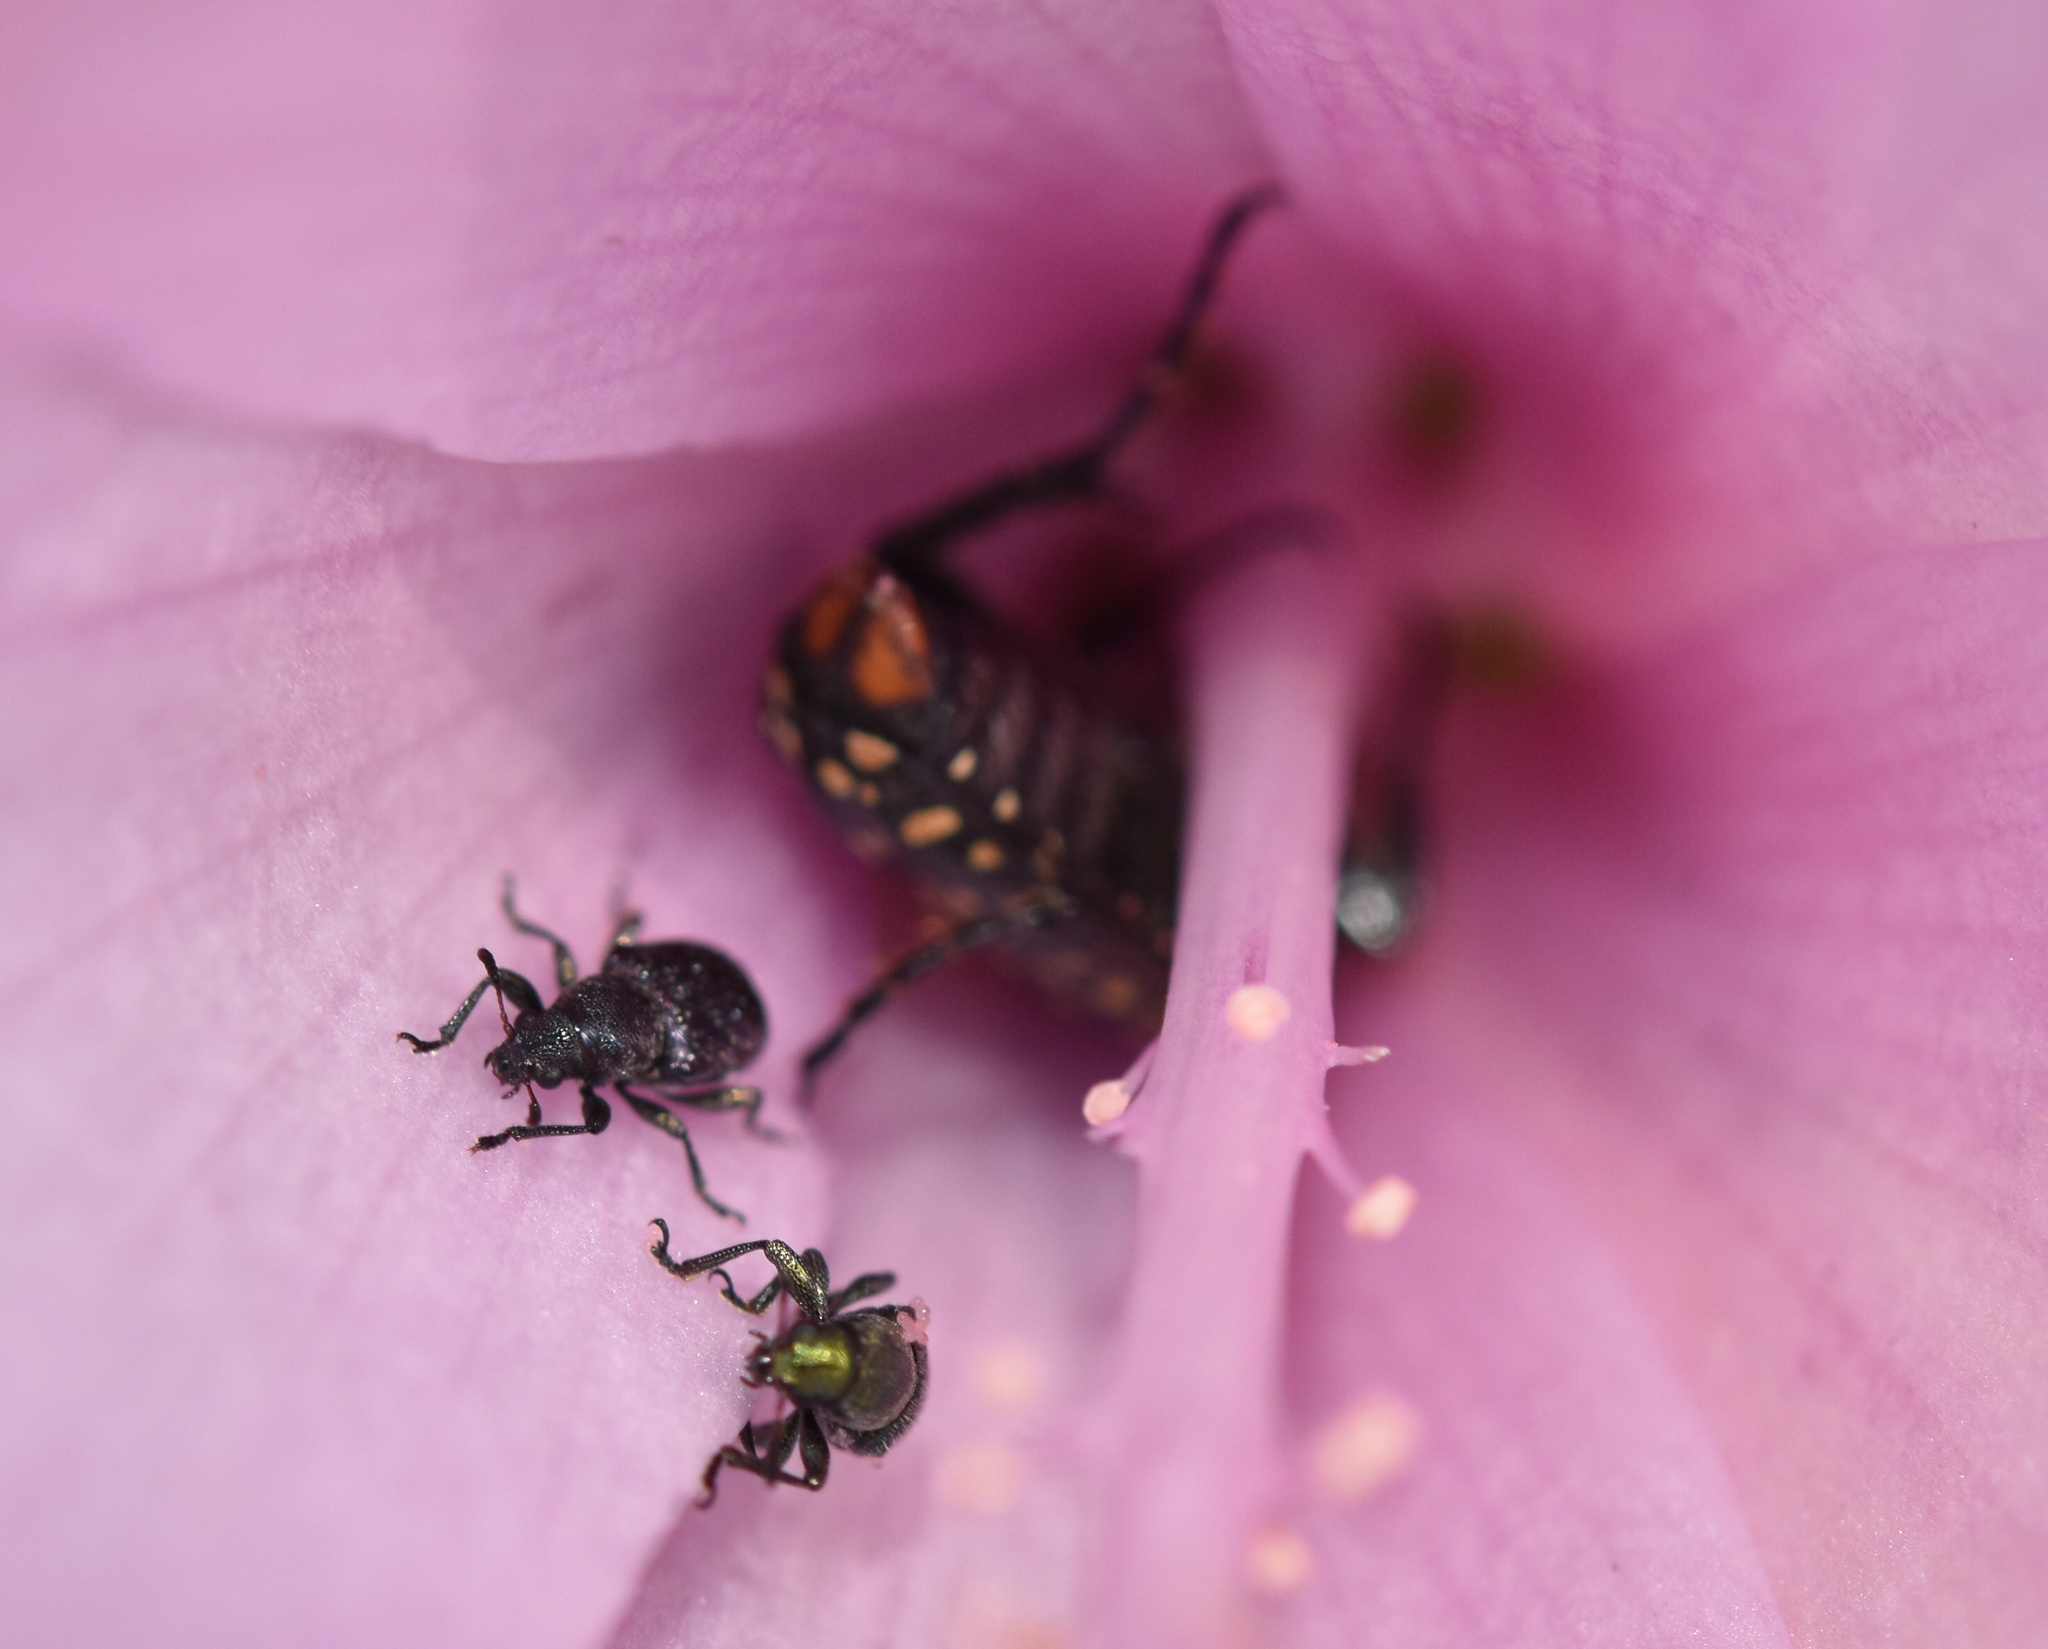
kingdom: Animalia
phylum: Arthropoda
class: Insecta
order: Coleoptera
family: Scarabaeidae
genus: Oxythyrea
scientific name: Oxythyrea
